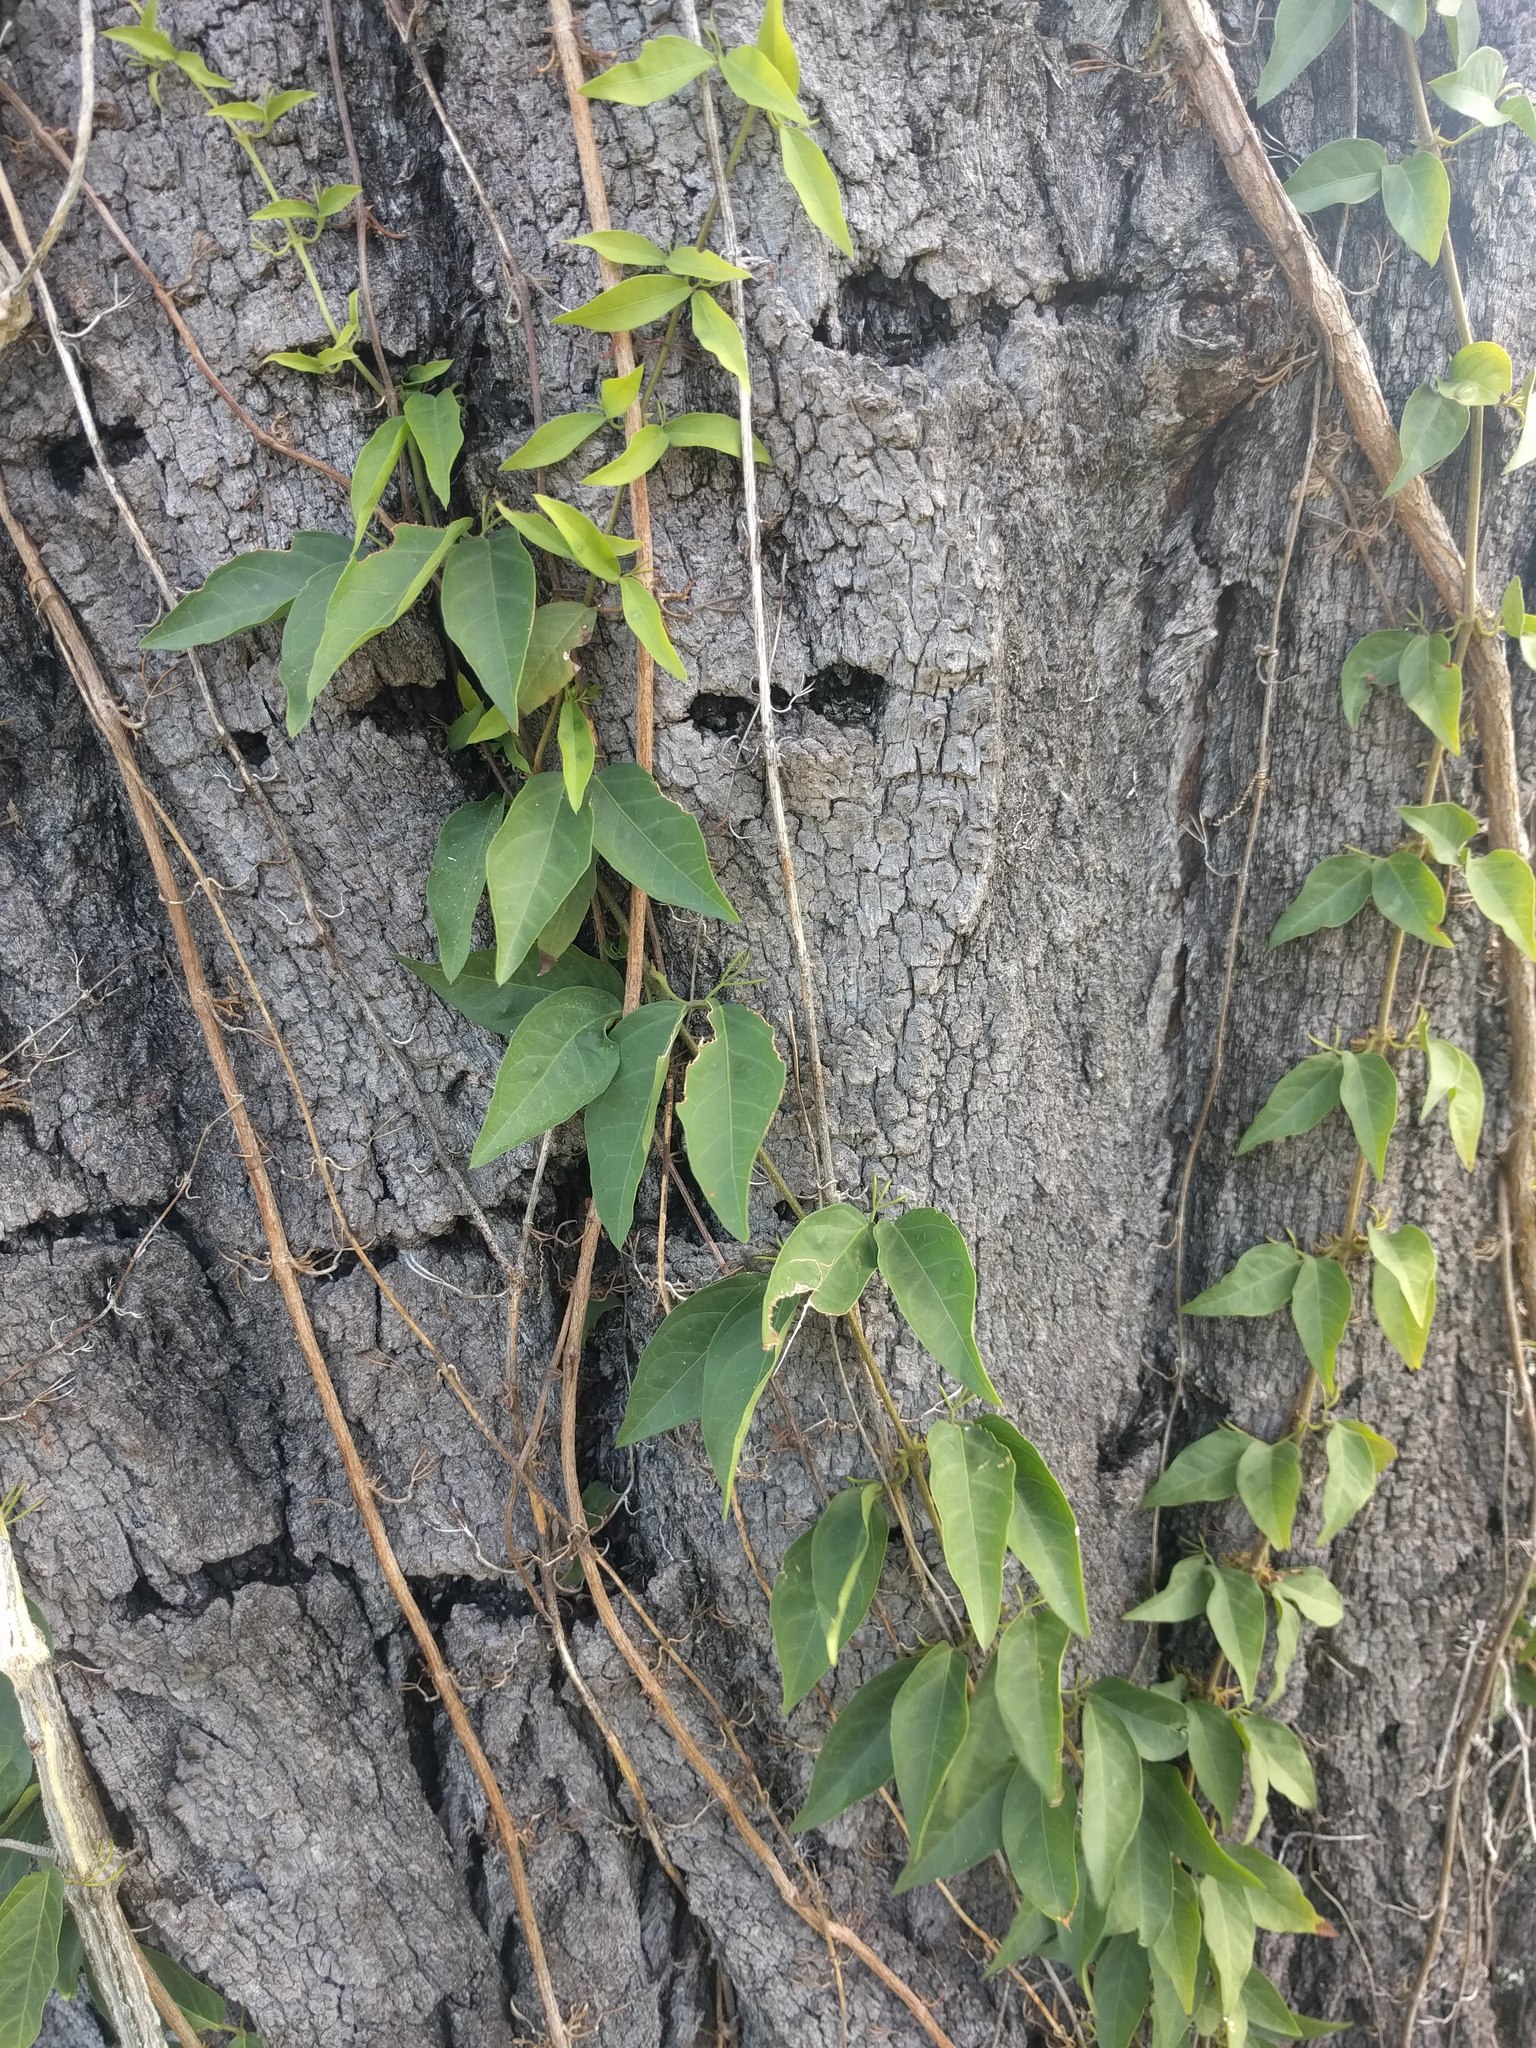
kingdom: Plantae
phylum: Tracheophyta
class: Magnoliopsida
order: Lamiales
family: Bignoniaceae
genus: Dolichandra
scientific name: Dolichandra unguis-cati
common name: Catclaw vine
